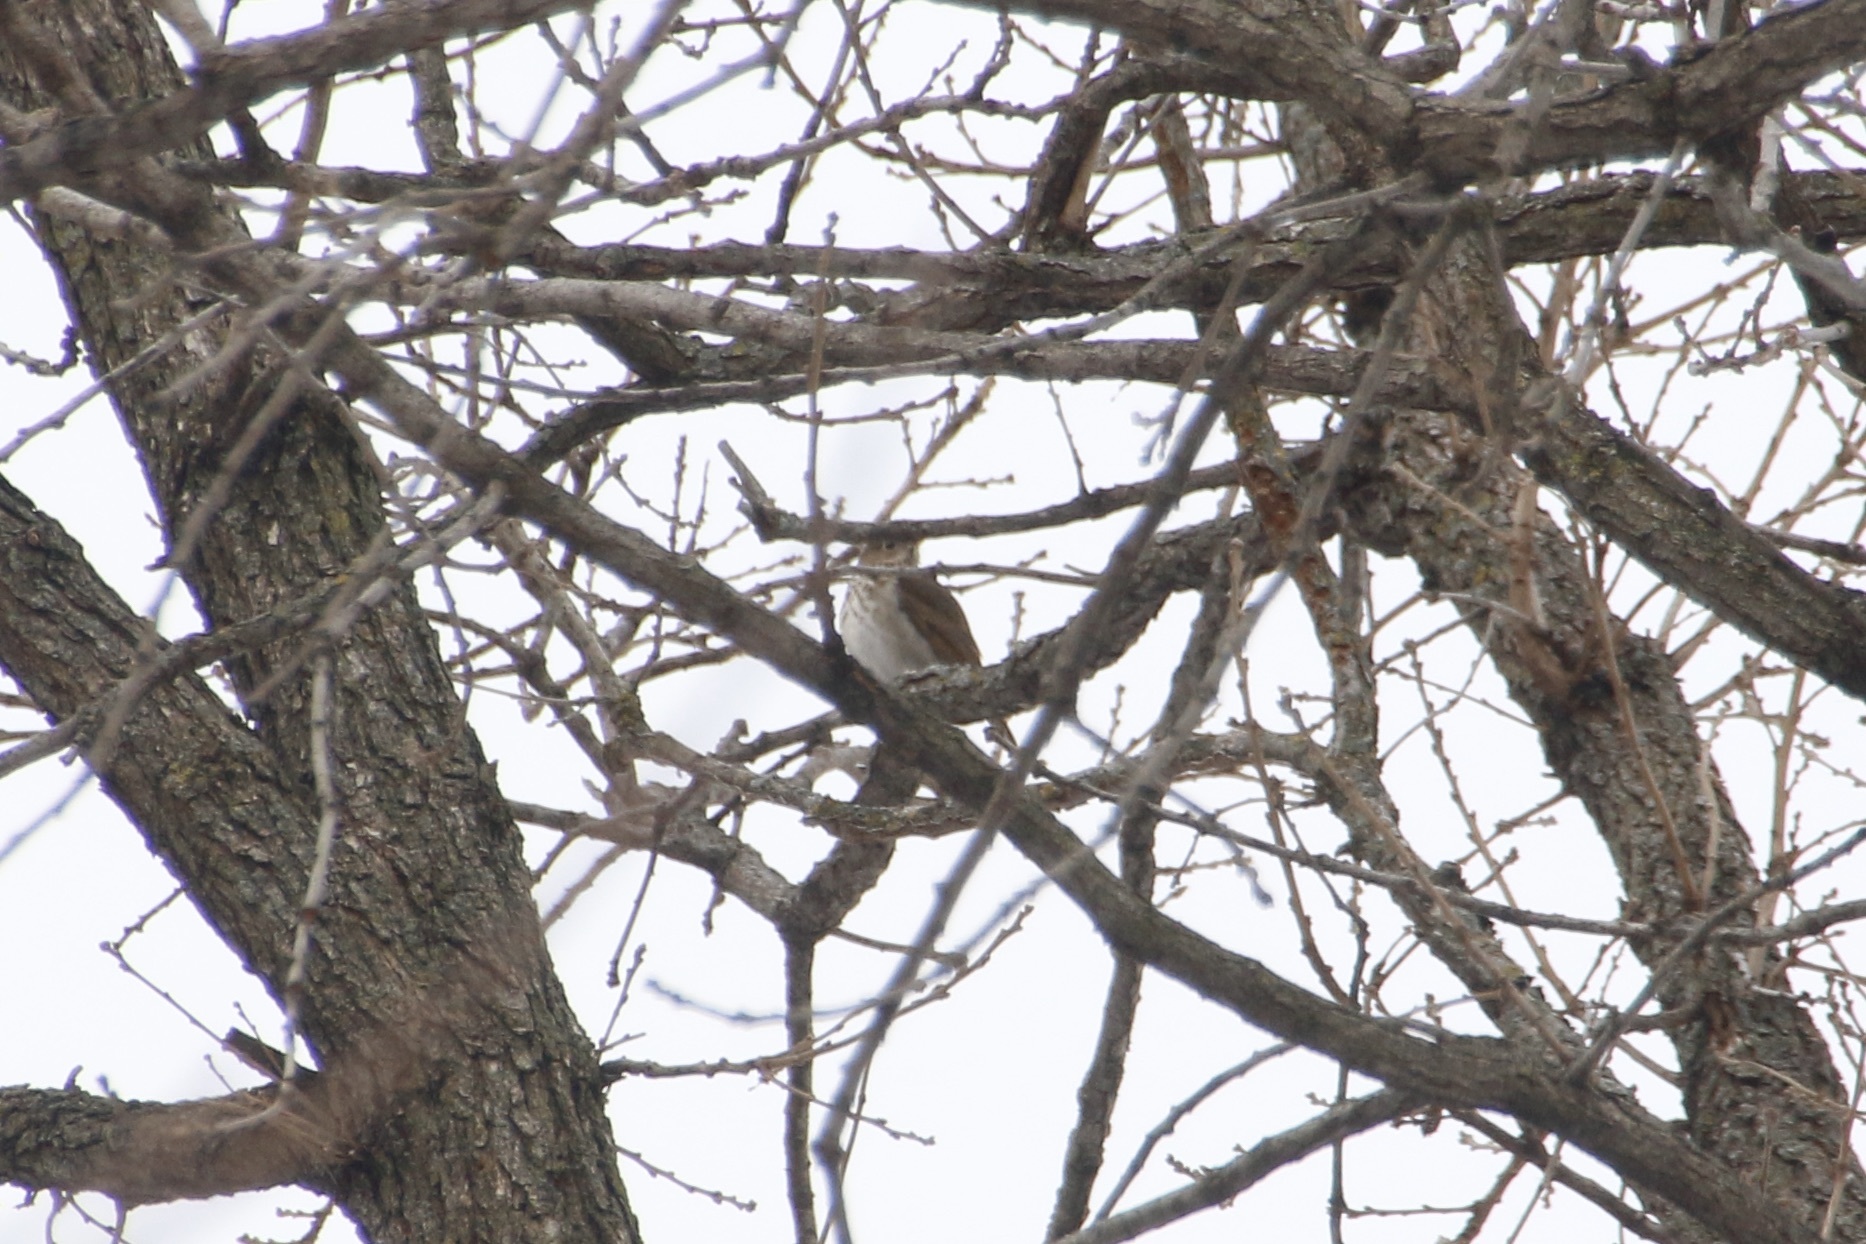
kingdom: Animalia
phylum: Chordata
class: Aves
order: Passeriformes
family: Turdidae
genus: Catharus
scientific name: Catharus guttatus
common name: Hermit thrush
